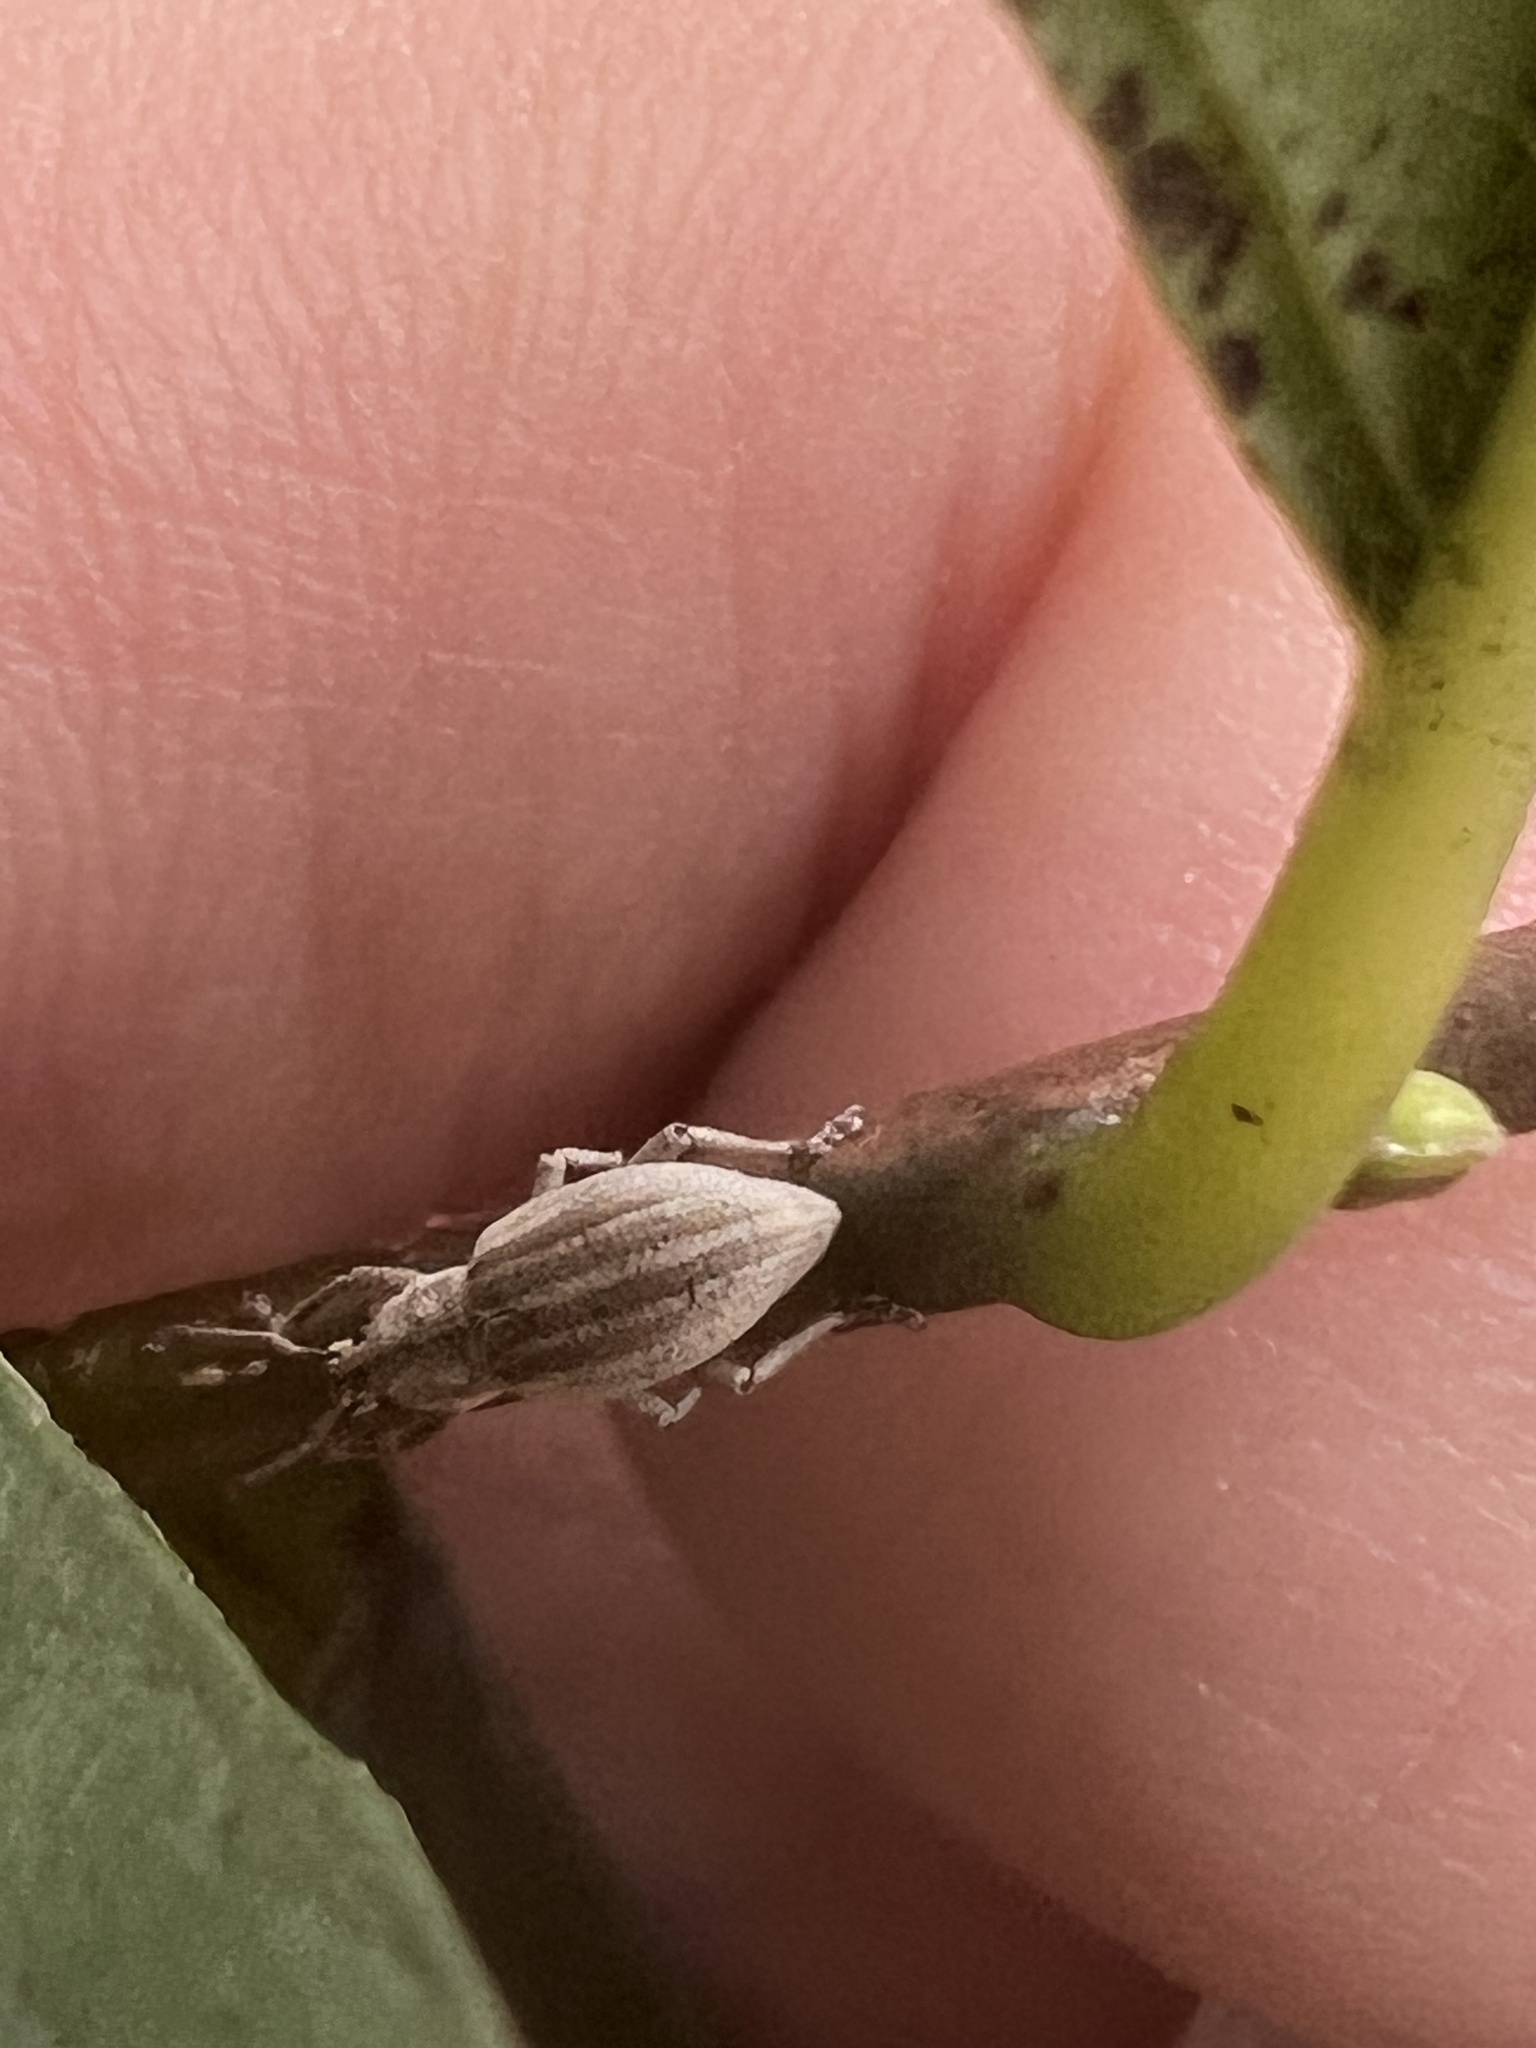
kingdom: Animalia
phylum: Arthropoda
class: Insecta
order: Coleoptera
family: Curculionidae
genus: Aphrastus
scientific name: Aphrastus taeniatus
